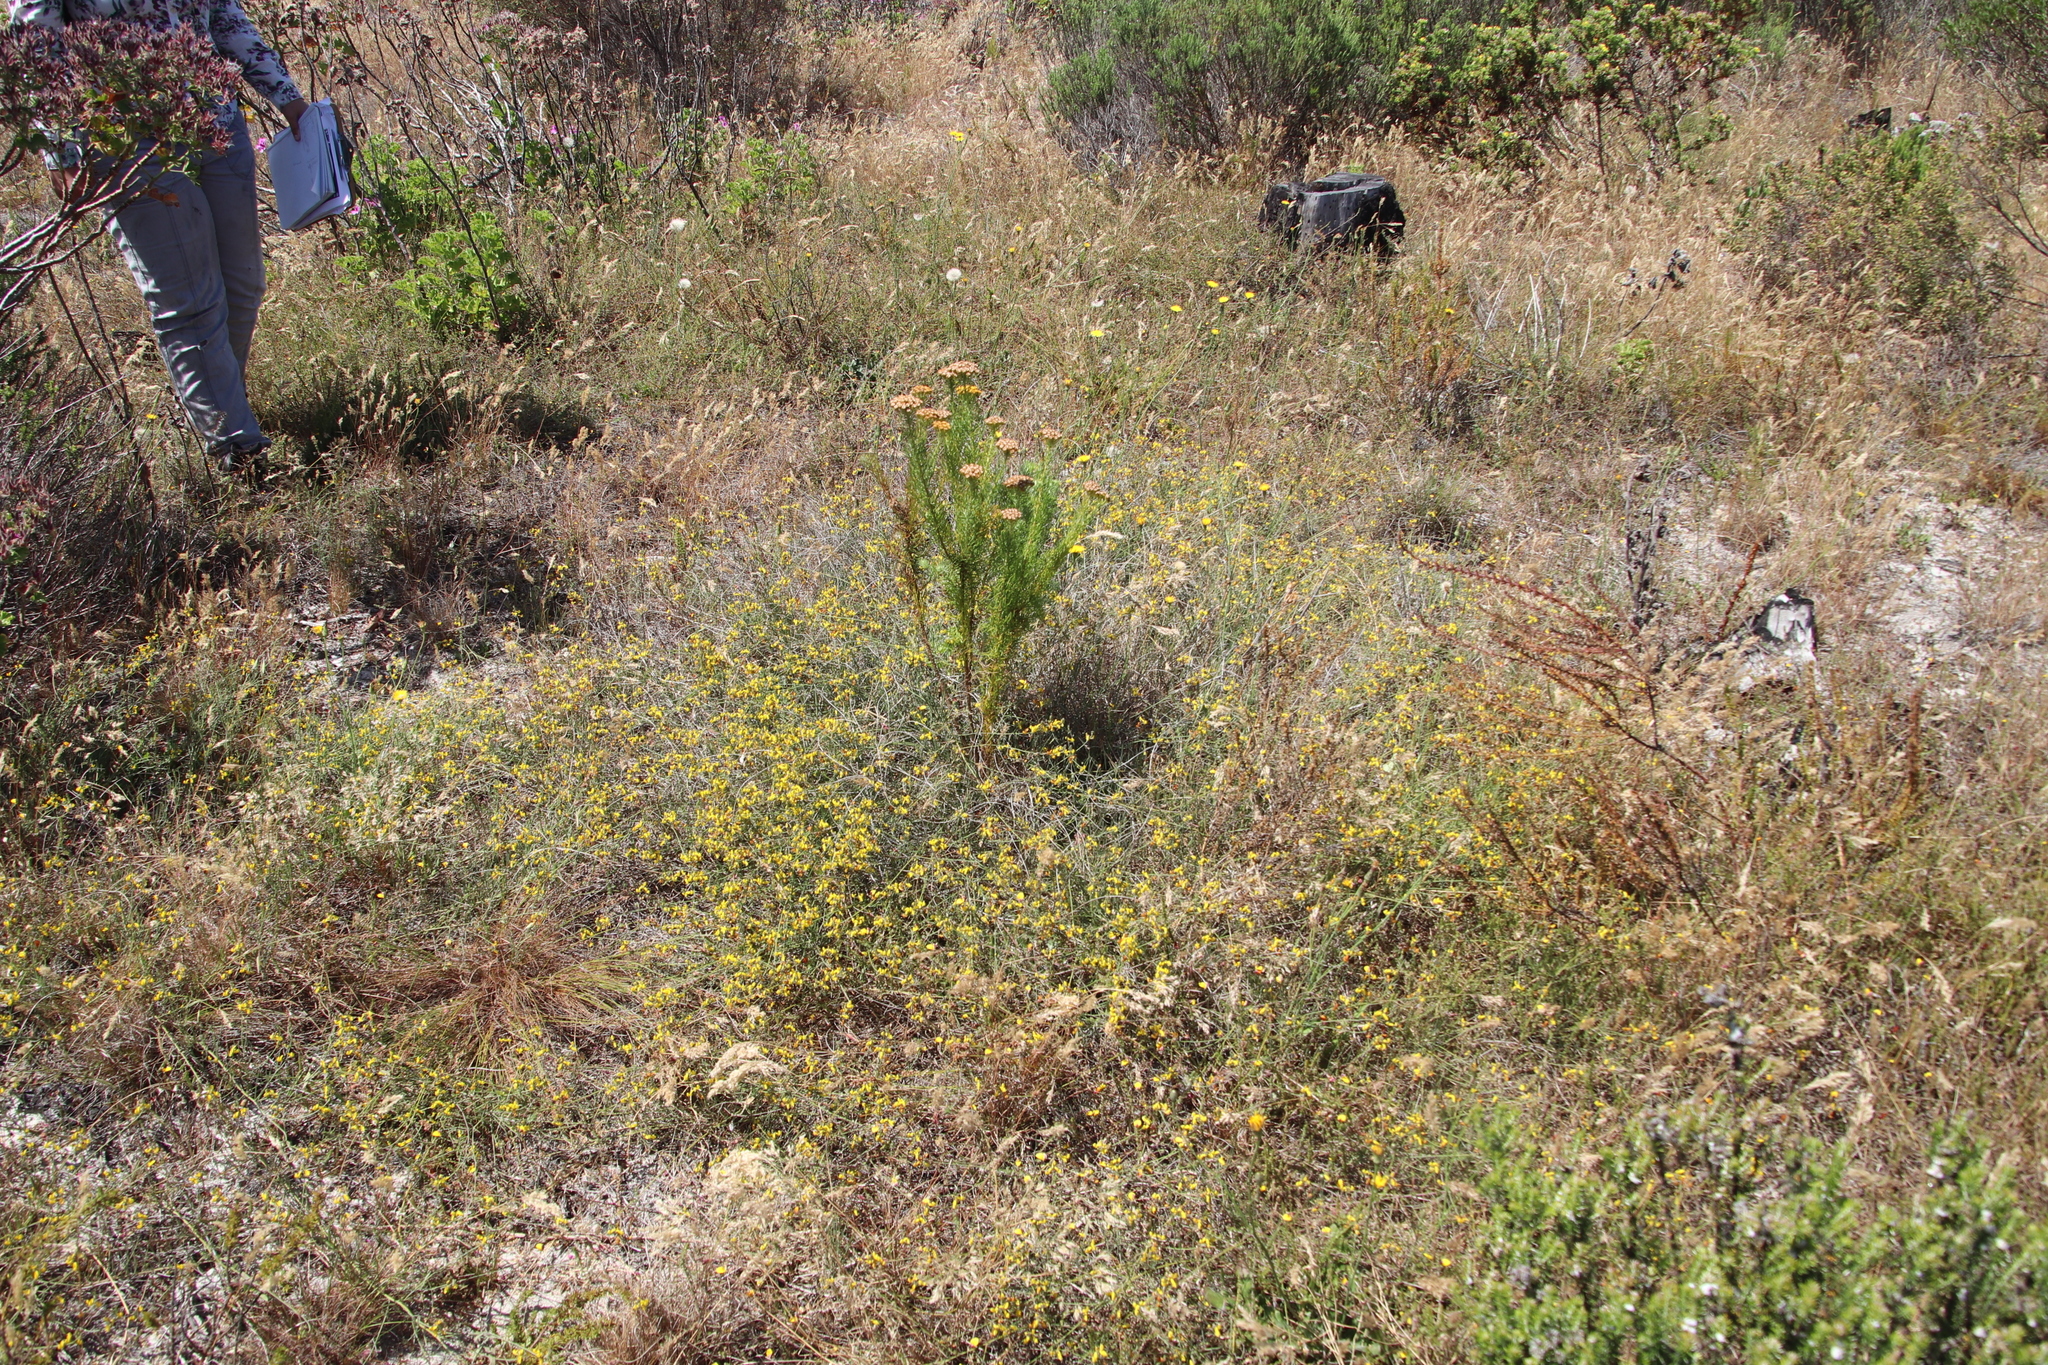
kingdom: Plantae
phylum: Tracheophyta
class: Magnoliopsida
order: Fabales
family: Fabaceae
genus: Lebeckia
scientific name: Lebeckia contaminata
